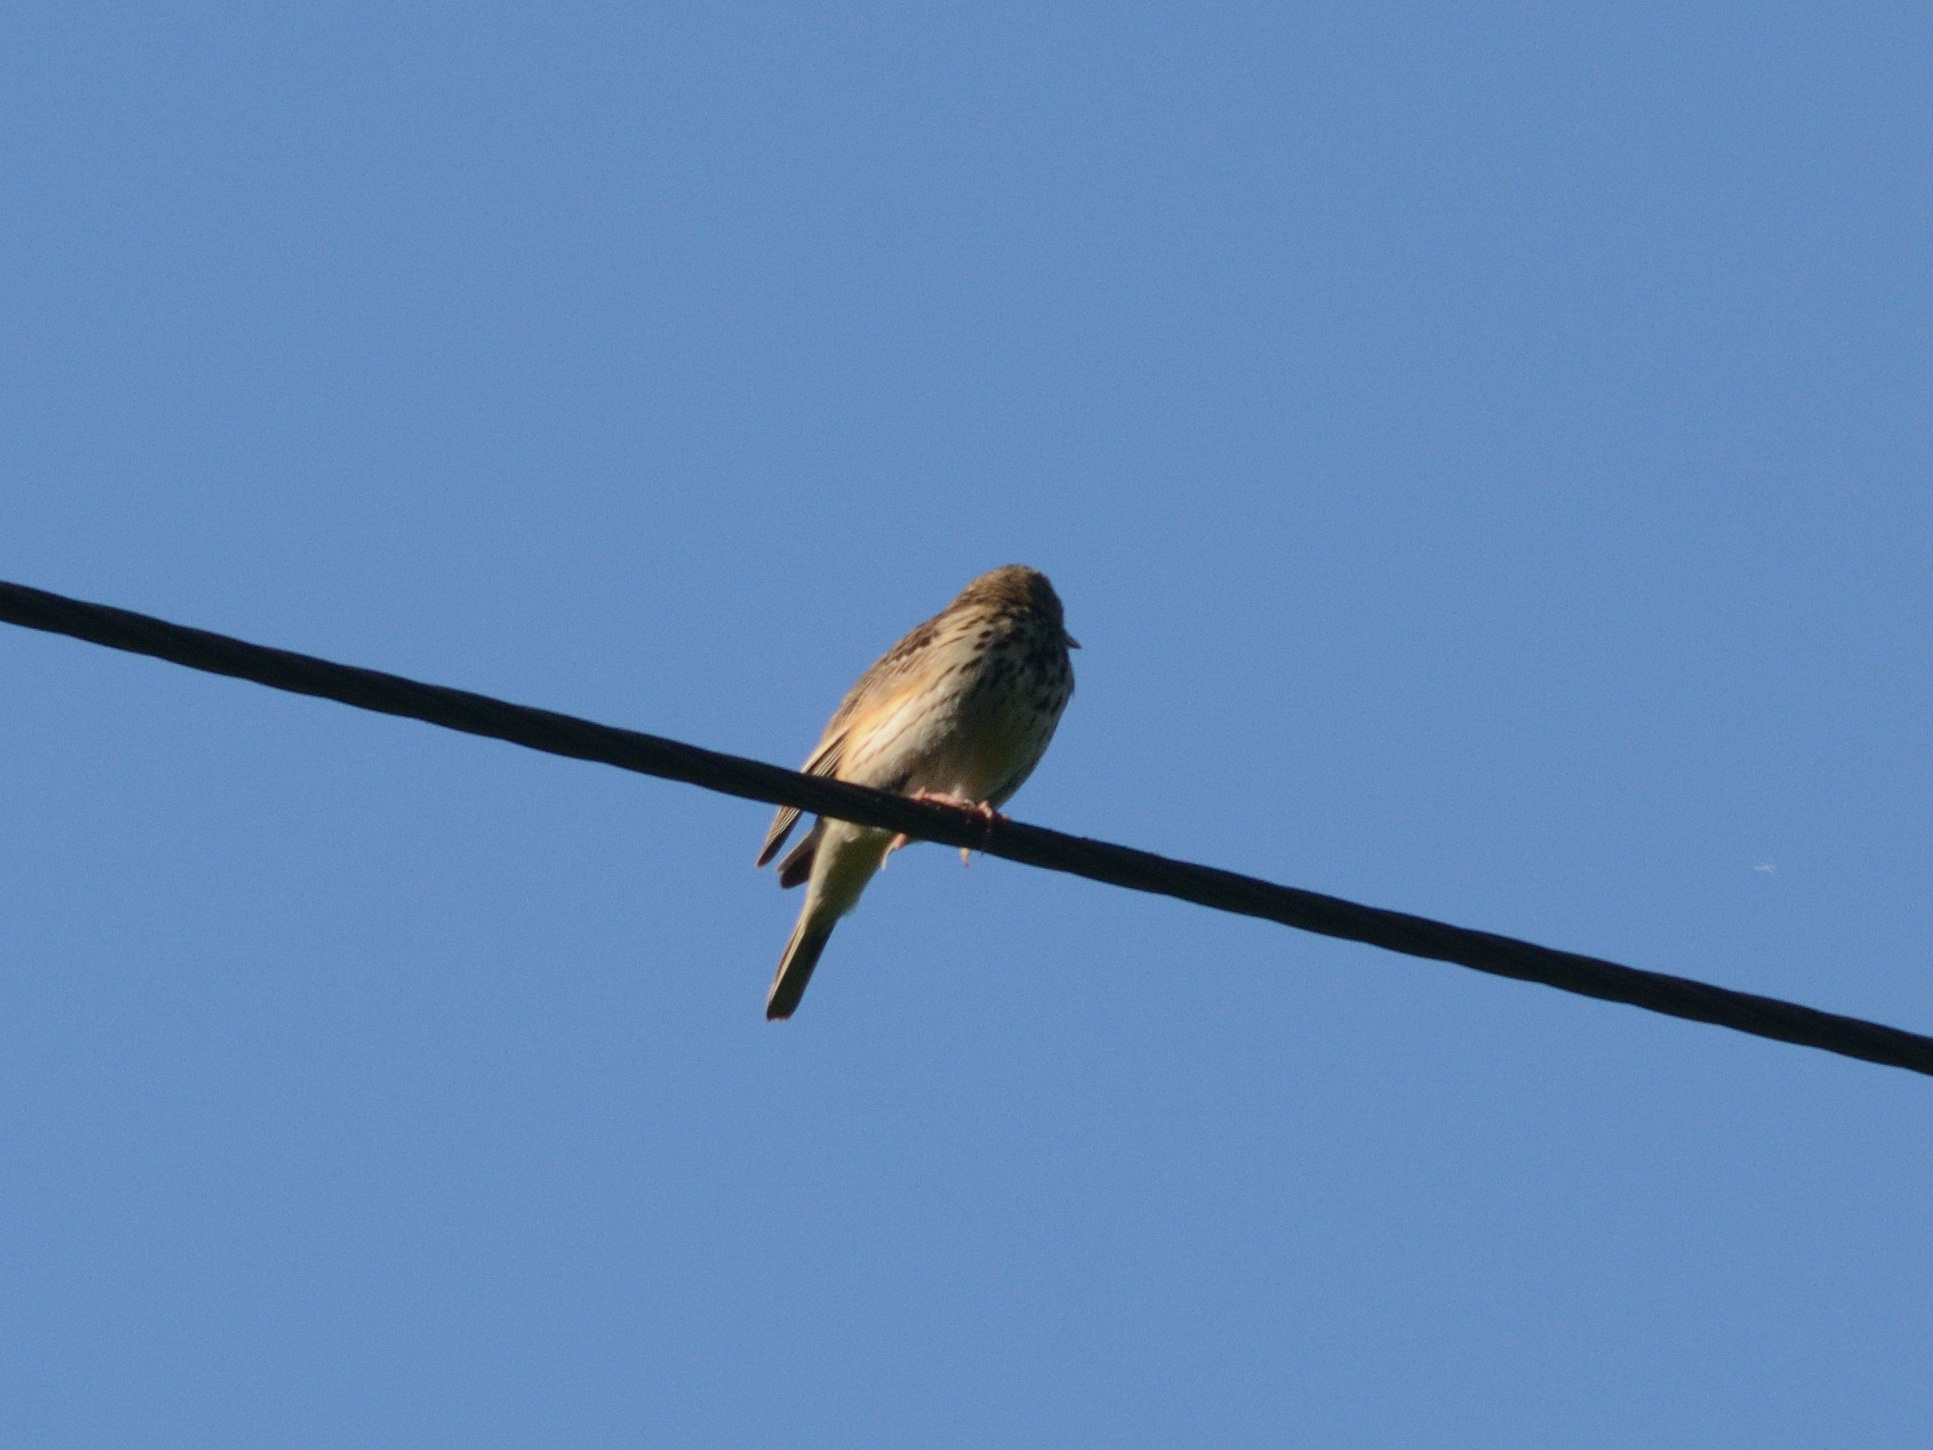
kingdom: Animalia
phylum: Chordata
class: Aves
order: Passeriformes
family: Motacillidae
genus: Anthus
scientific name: Anthus trivialis
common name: Tree pipit
